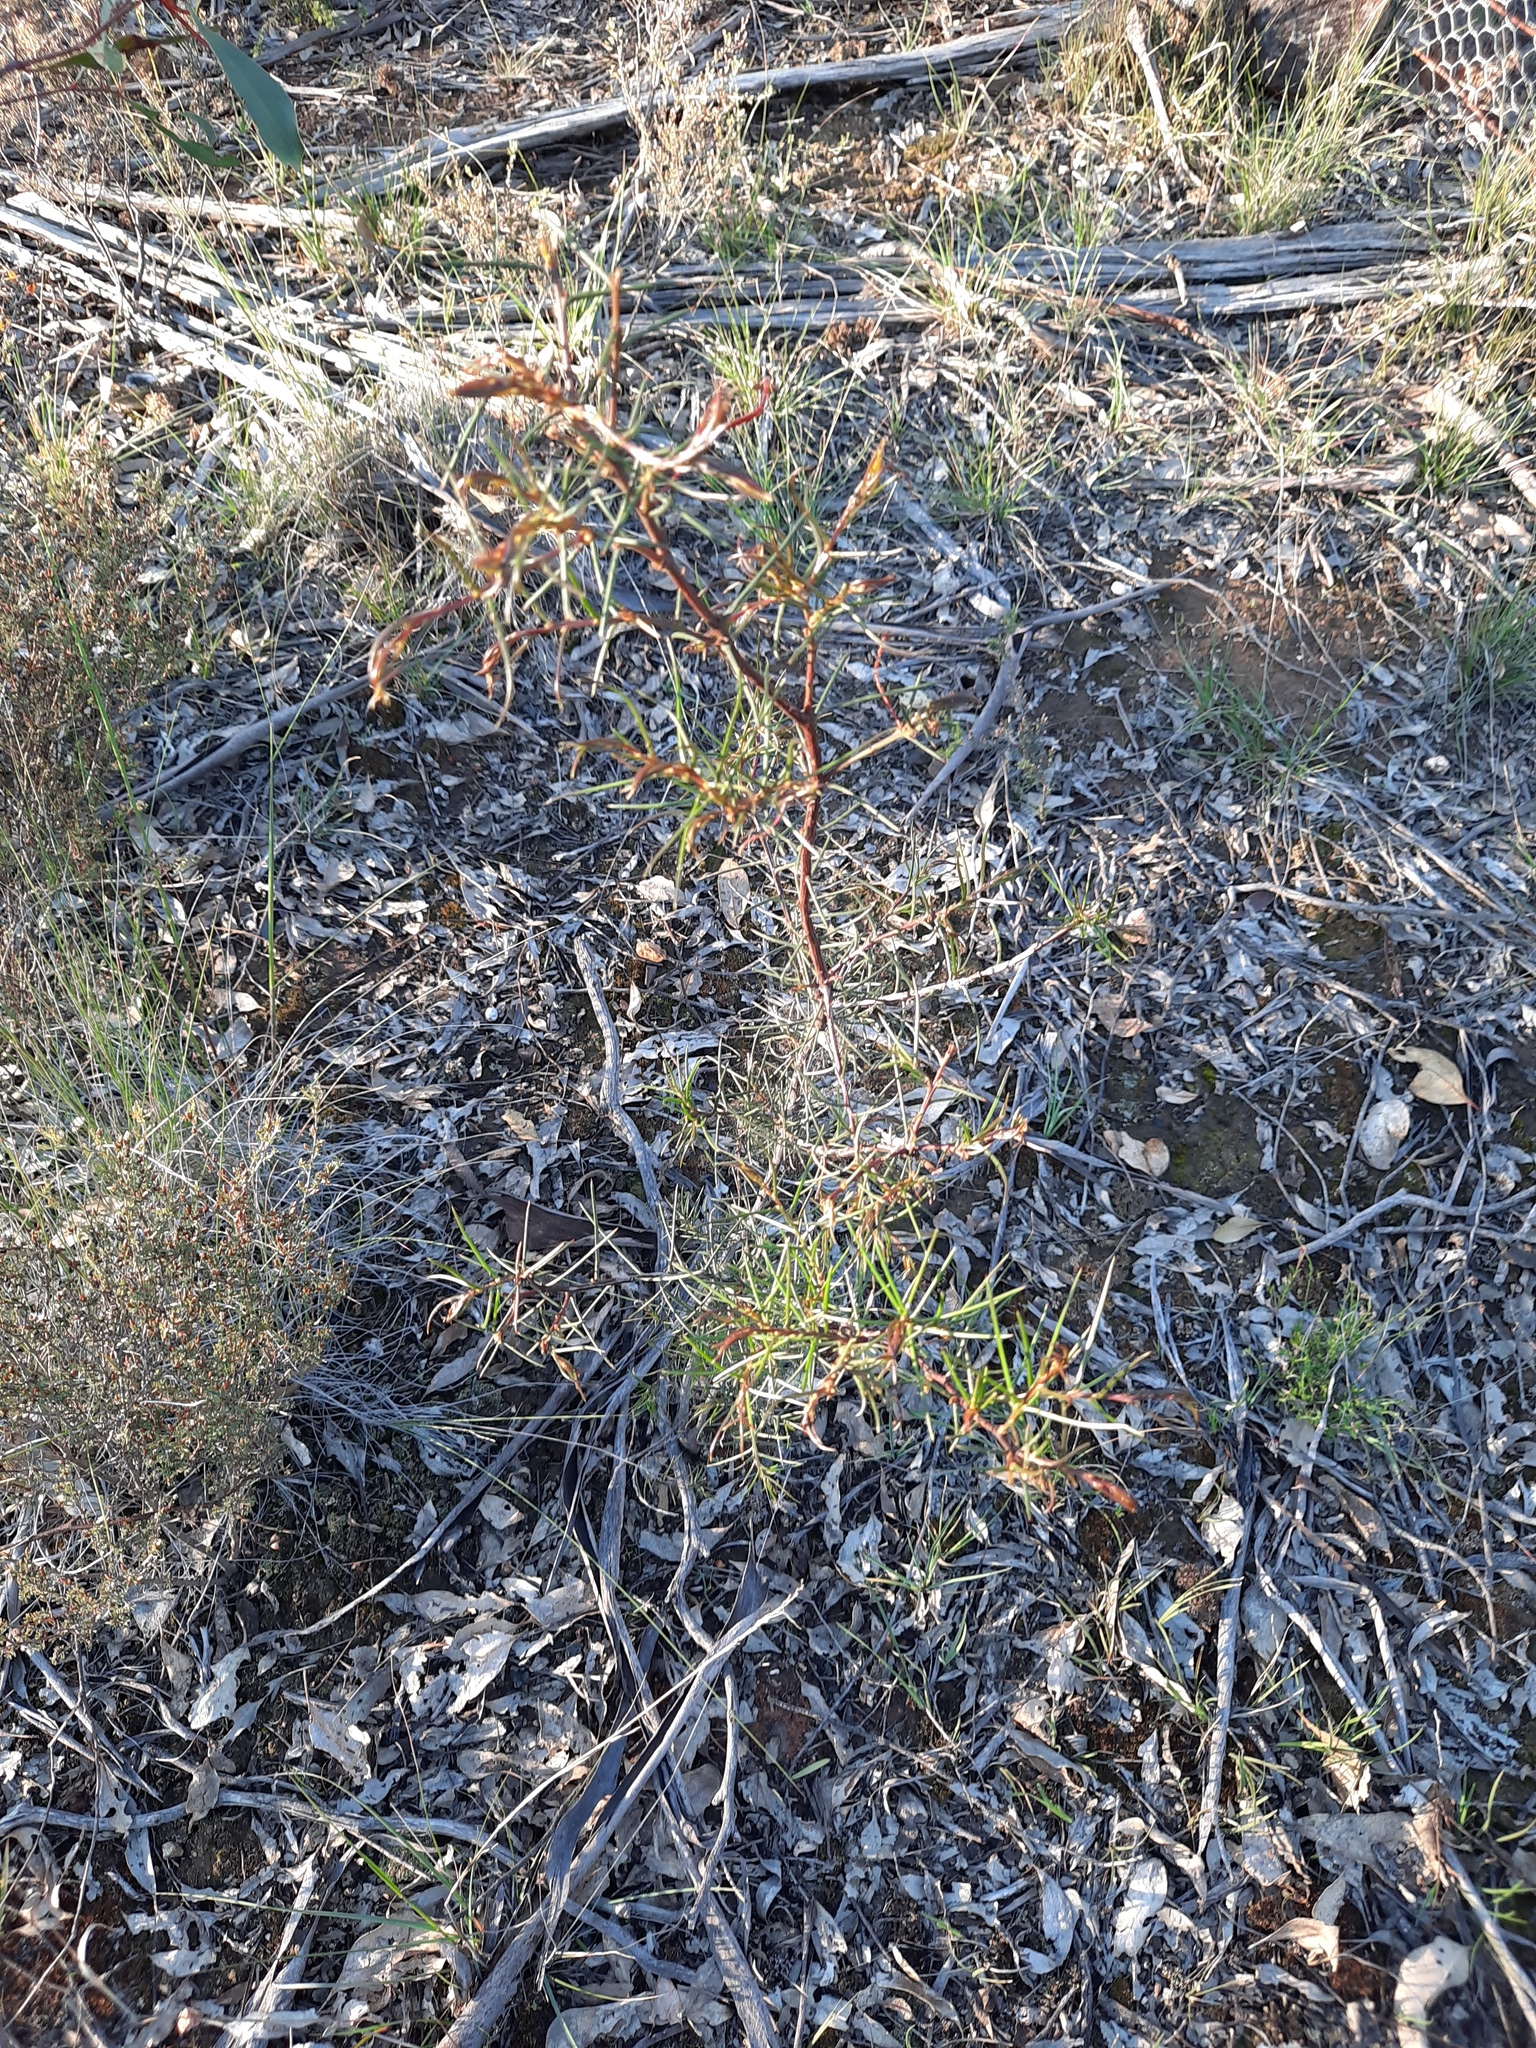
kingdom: Plantae
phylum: Tracheophyta
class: Magnoliopsida
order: Fabales
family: Fabaceae
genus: Acacia
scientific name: Acacia genistifolia
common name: Early wattle
